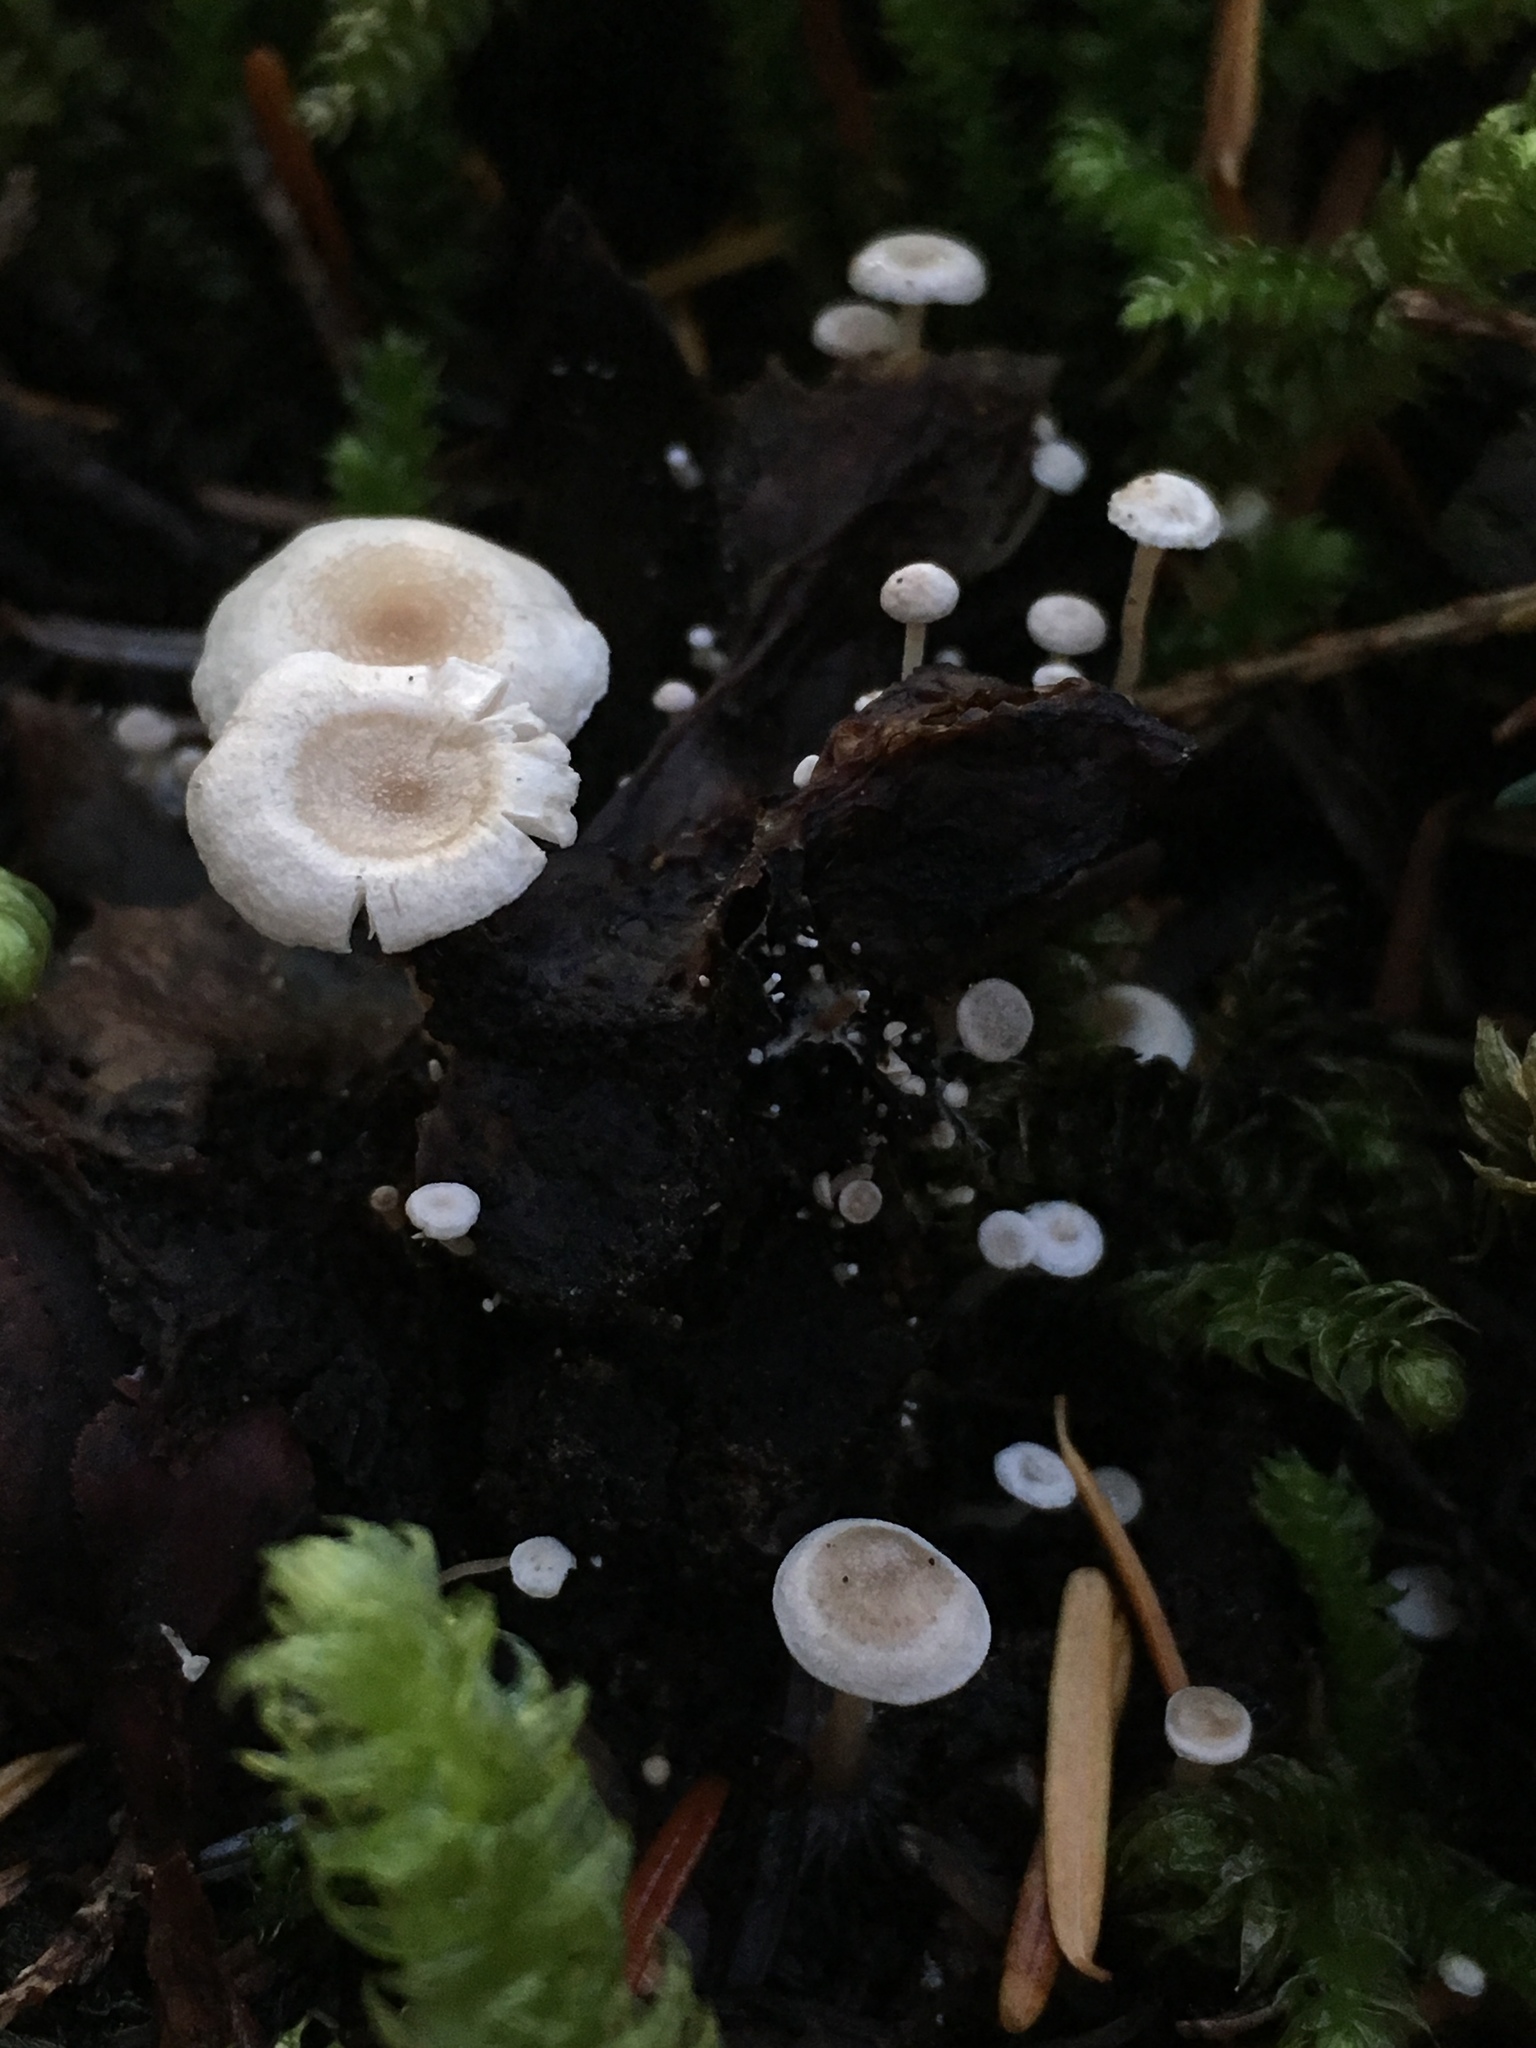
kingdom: Fungi
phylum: Basidiomycota
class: Agaricomycetes
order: Agaricales
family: Physalacriaceae
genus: Strobilurus
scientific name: Strobilurus trullisatus
